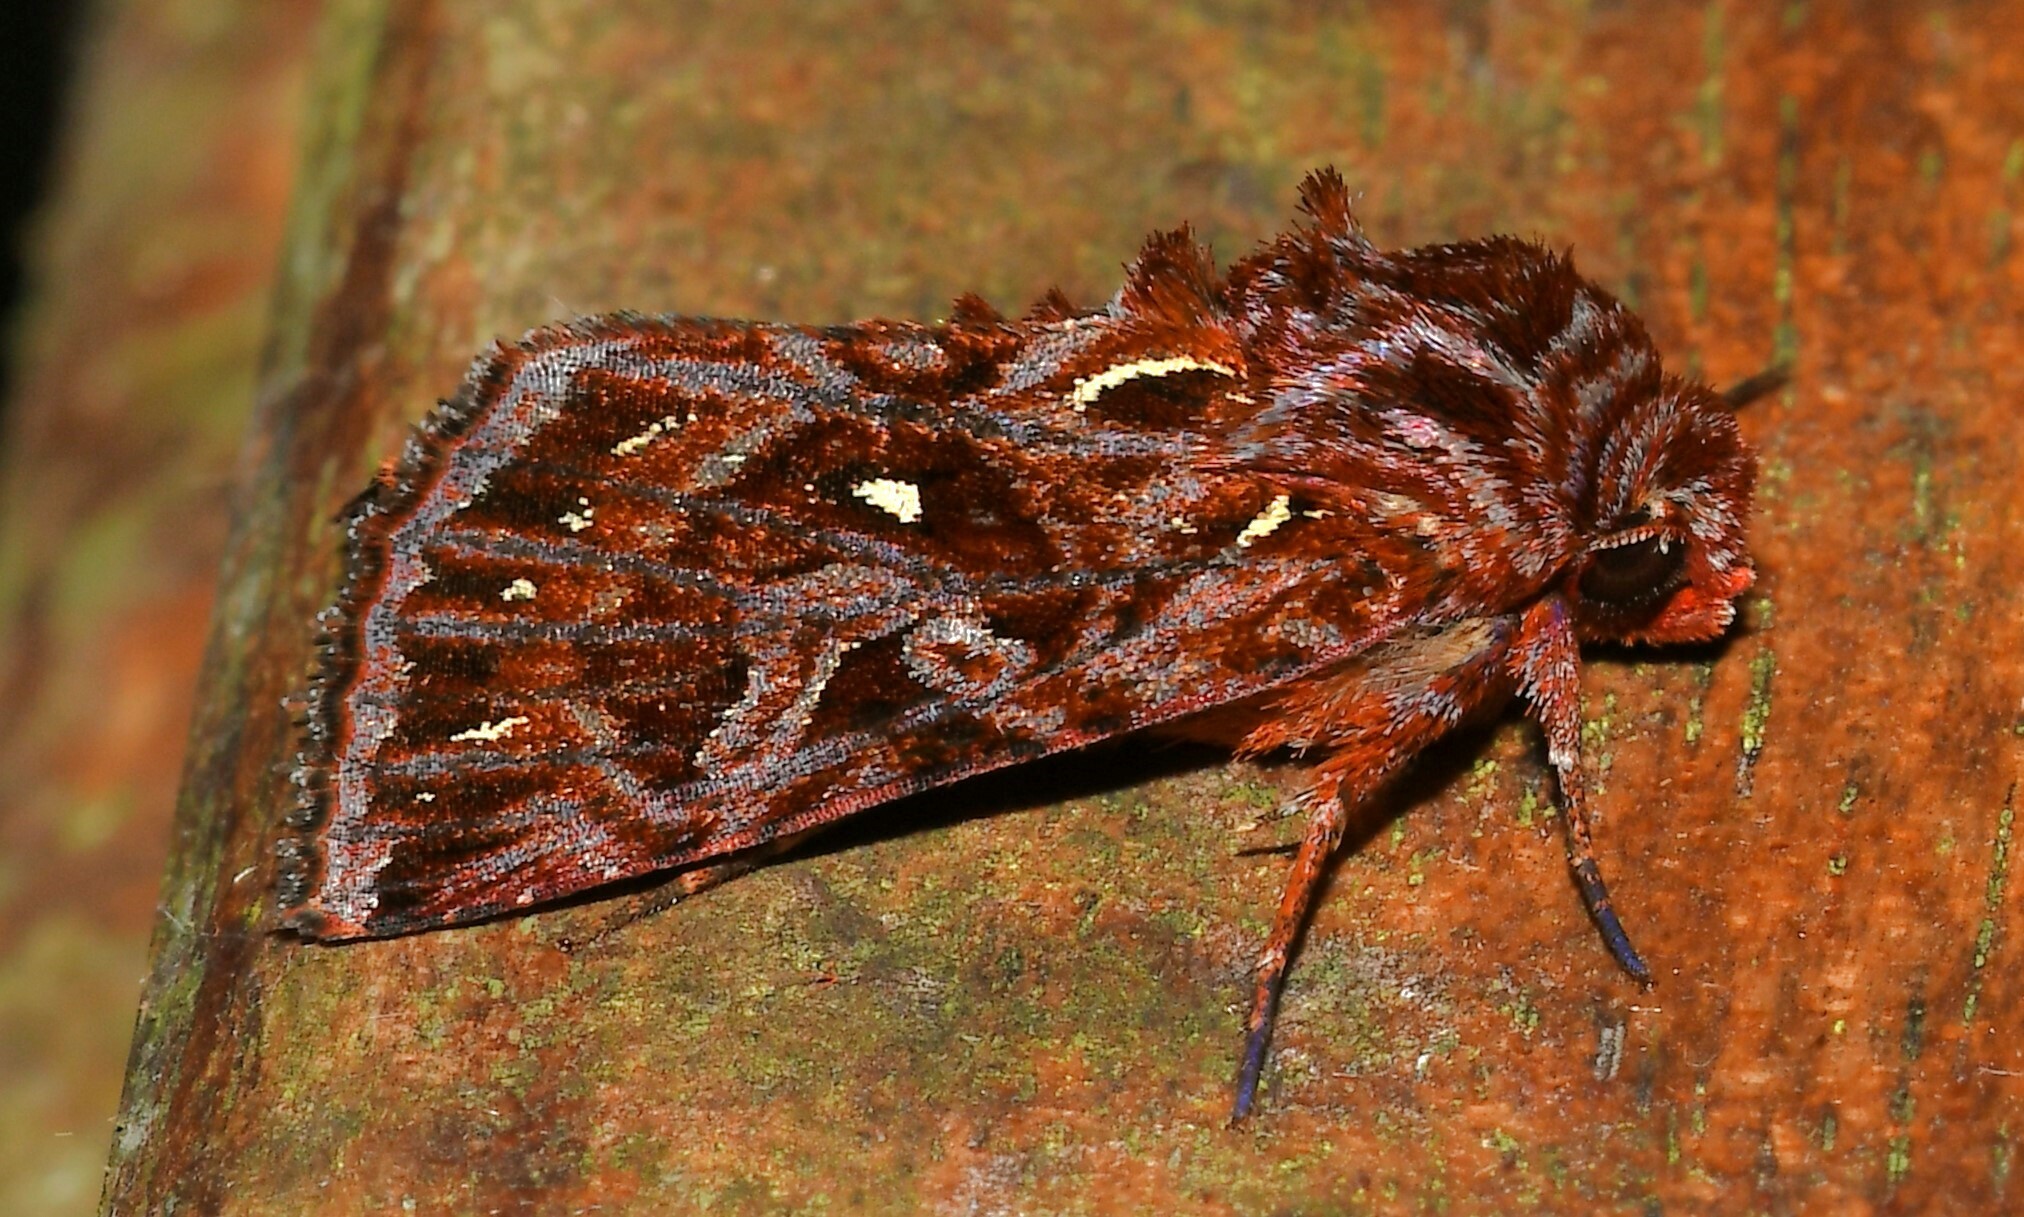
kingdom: Animalia
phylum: Arthropoda
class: Insecta
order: Lepidoptera
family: Noctuidae
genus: Dargida
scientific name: Dargida
